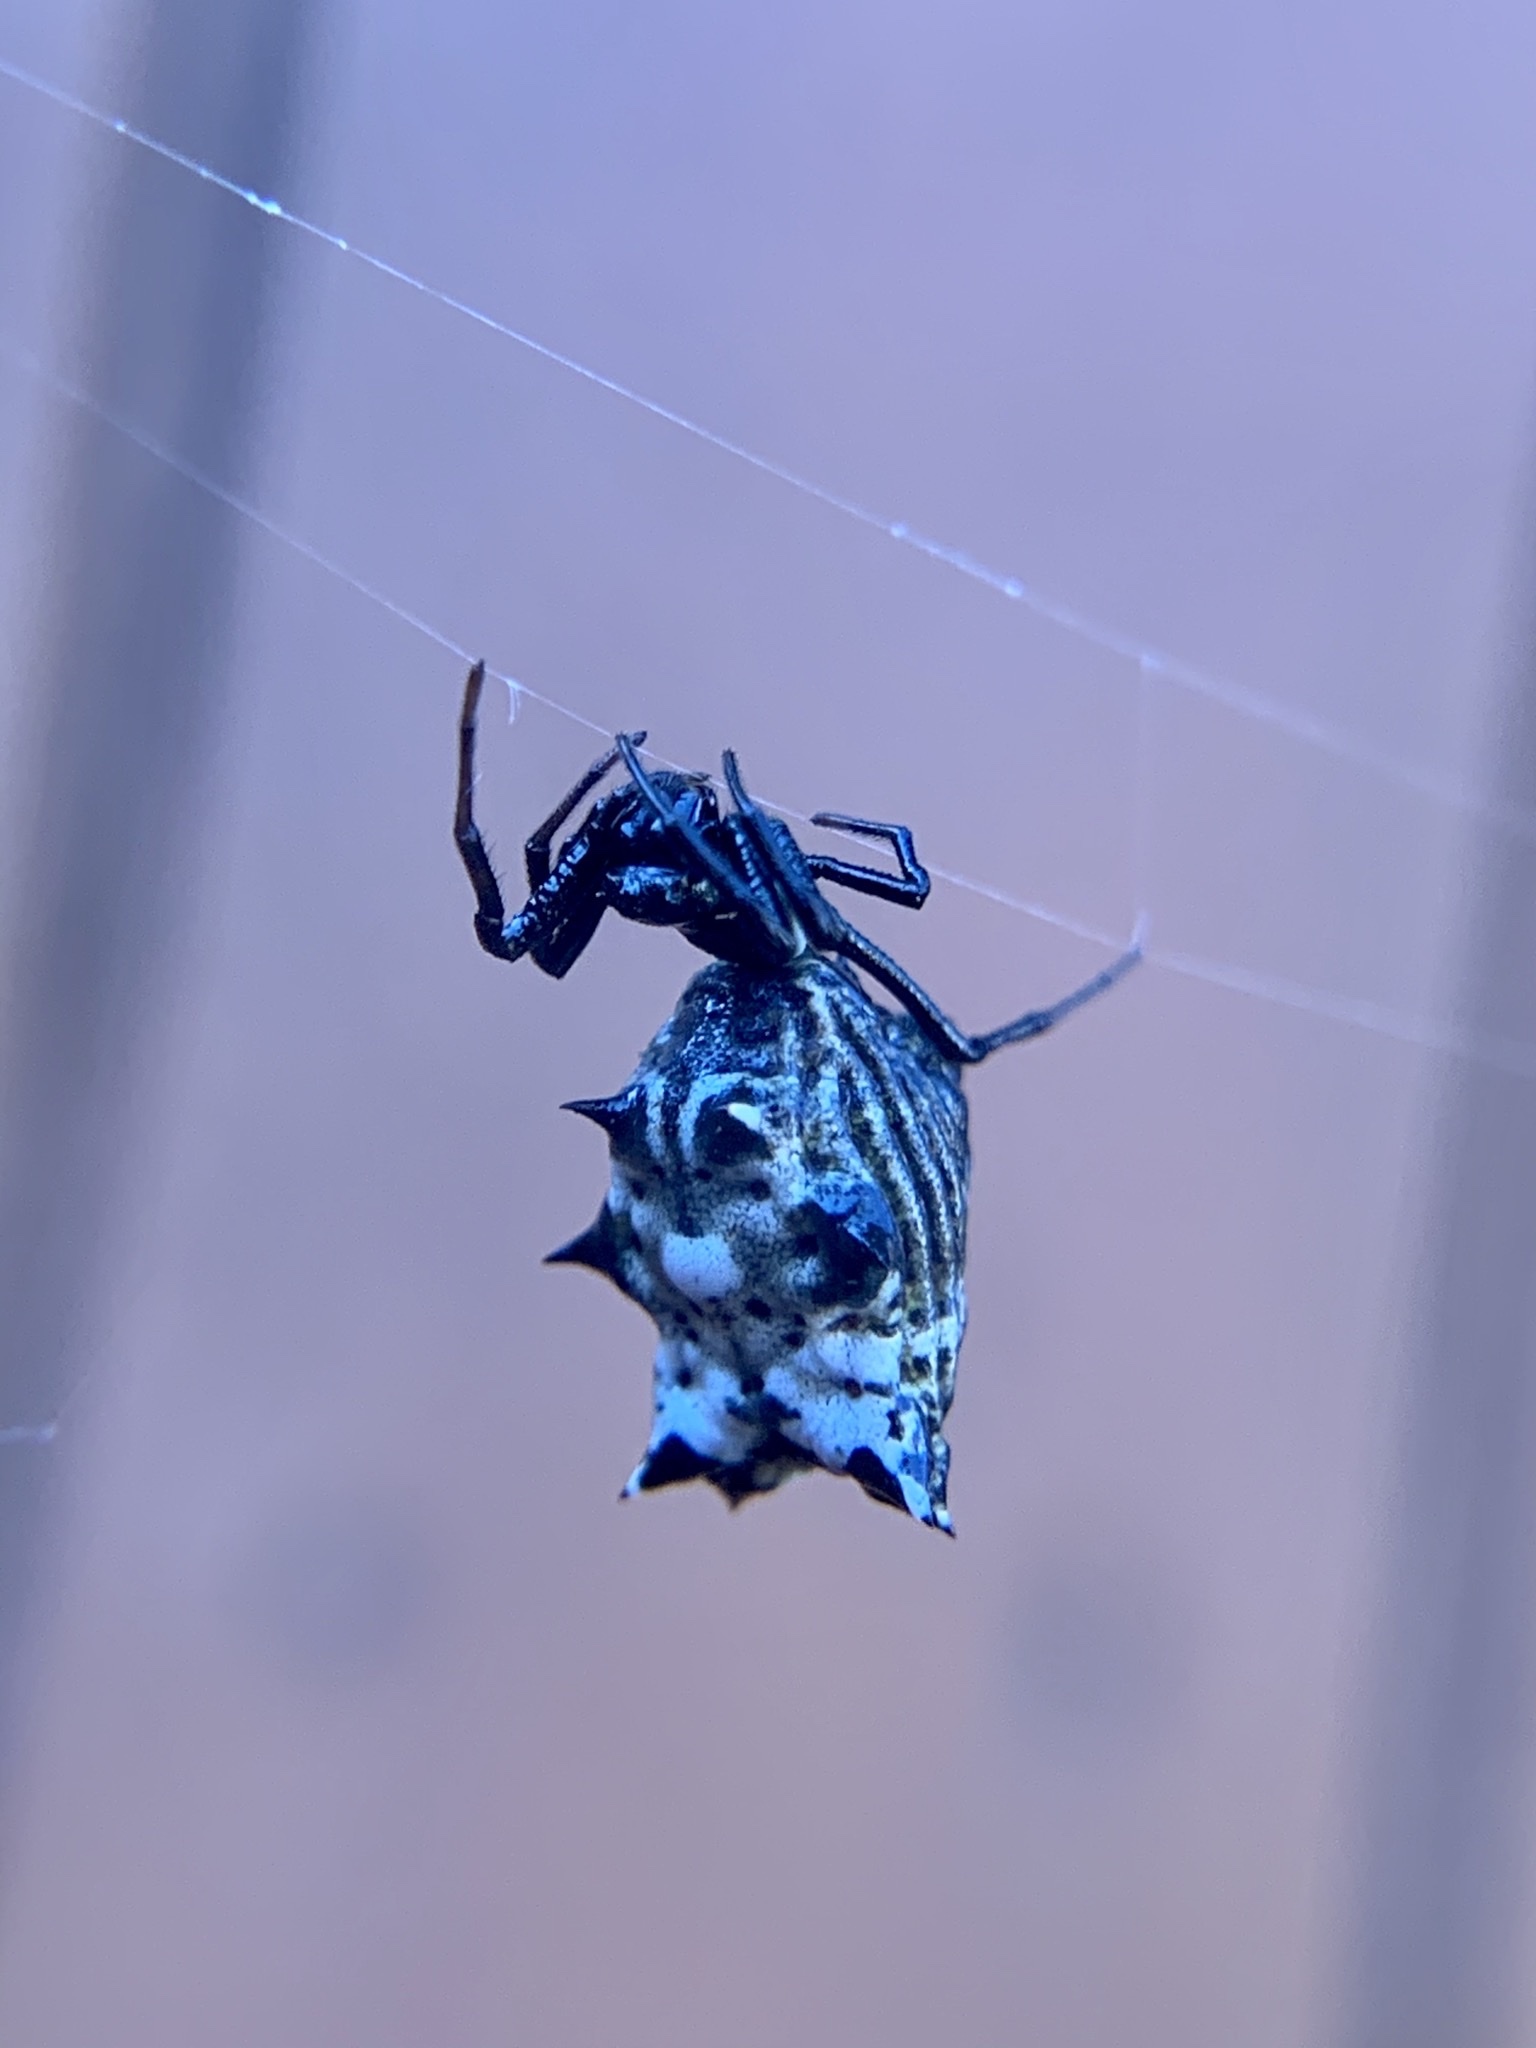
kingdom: Animalia
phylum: Arthropoda
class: Arachnida
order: Araneae
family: Araneidae
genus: Micrathena
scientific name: Micrathena gracilis
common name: Orb weavers
